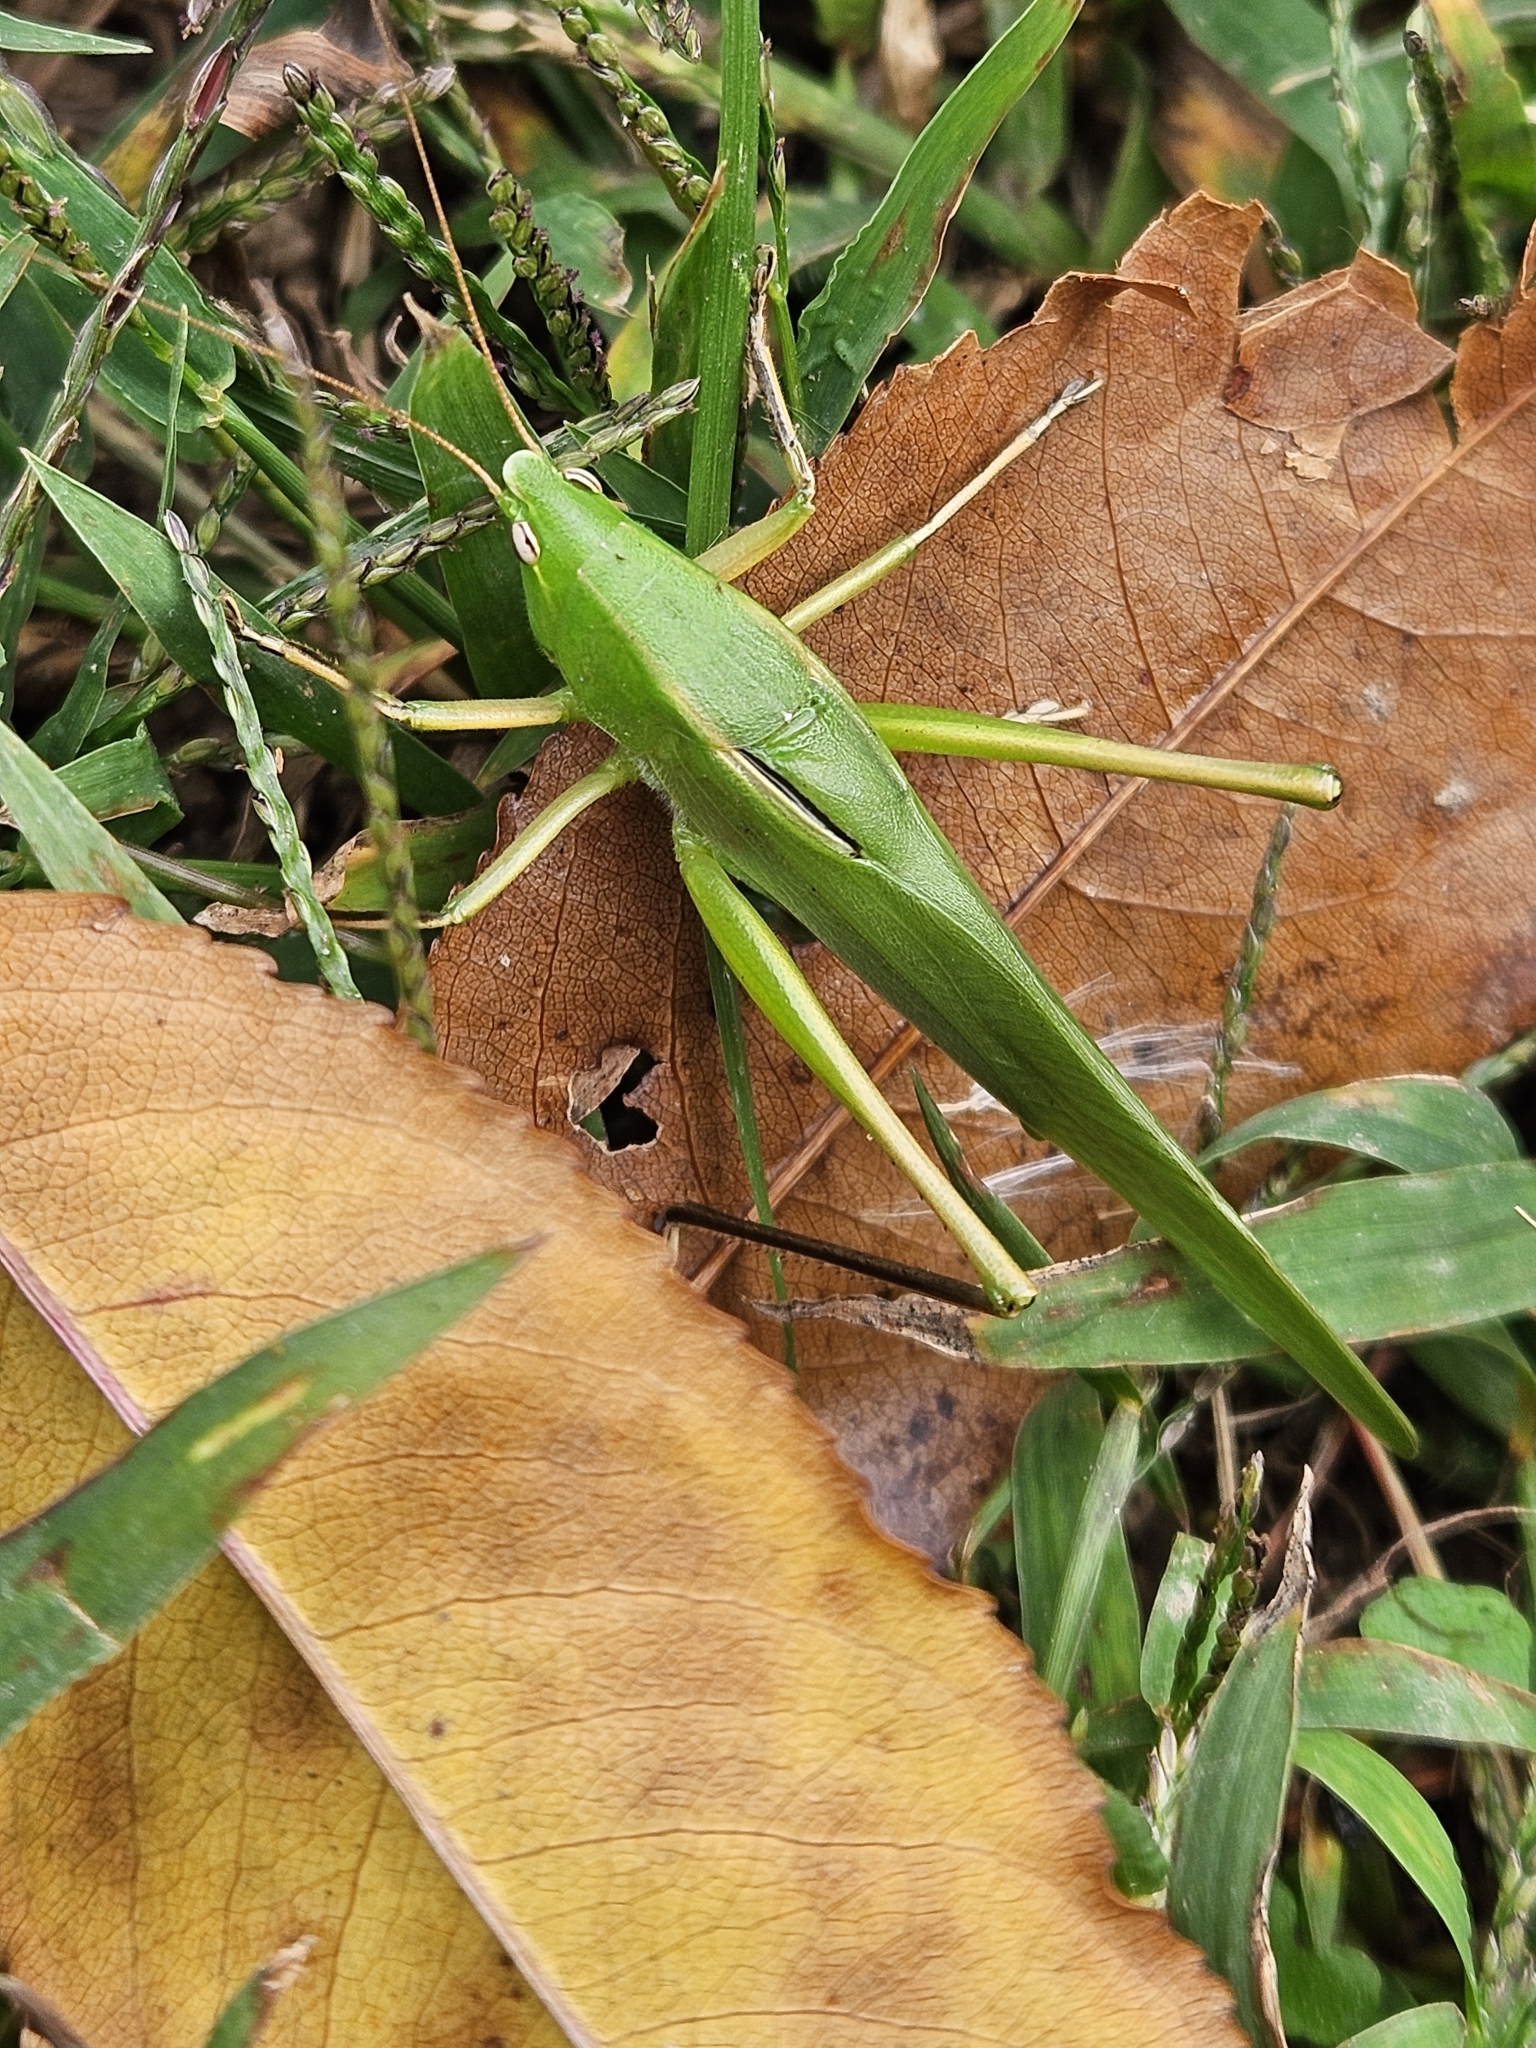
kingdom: Animalia
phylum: Arthropoda
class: Insecta
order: Orthoptera
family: Tettigoniidae
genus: Neoconocephalus
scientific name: Neoconocephalus triops
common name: Broad-tipped conehead
